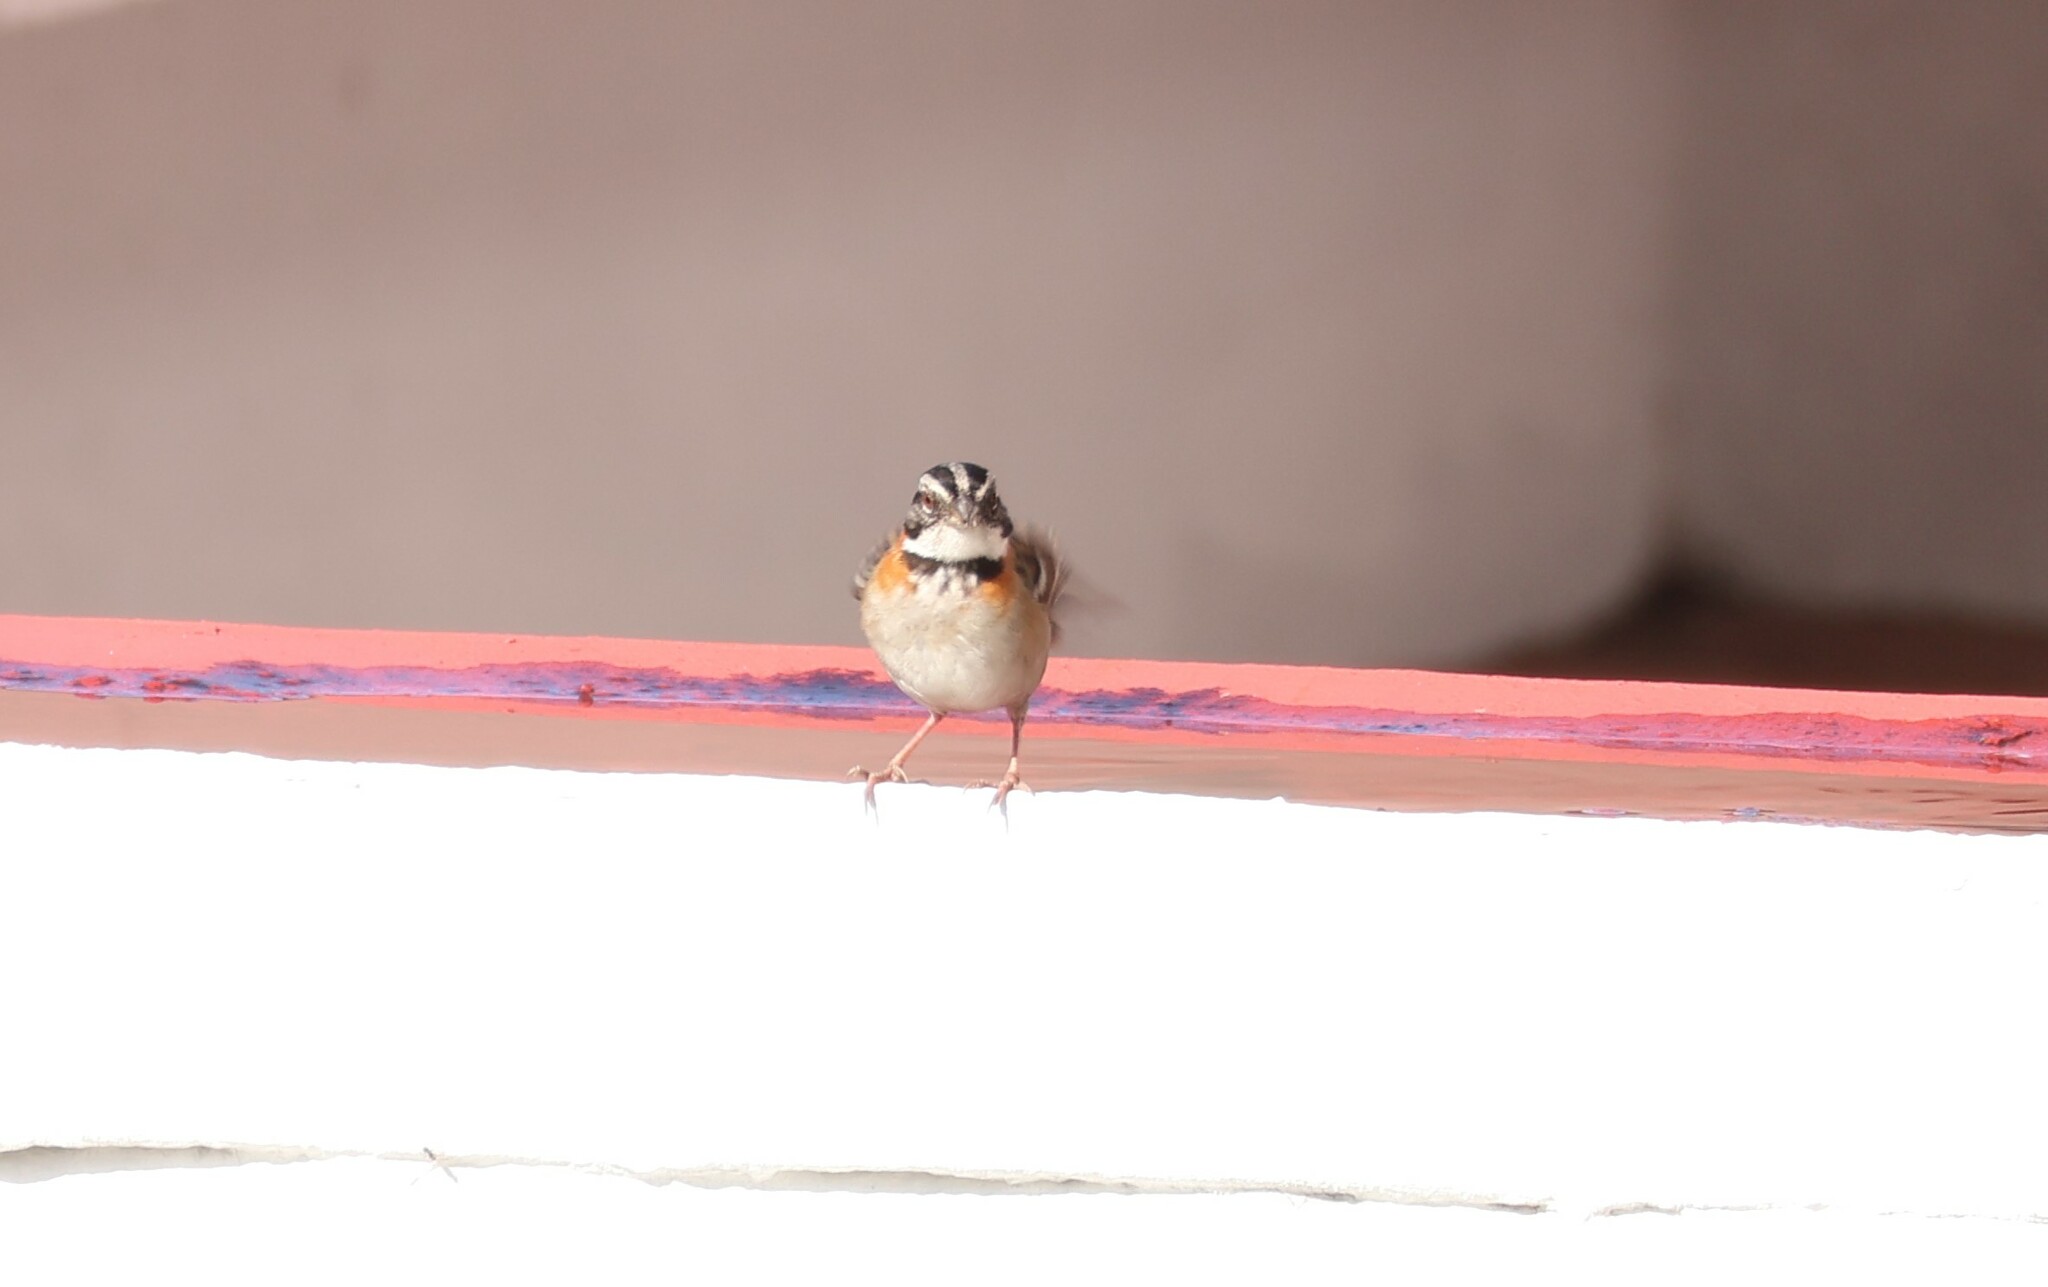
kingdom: Animalia
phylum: Chordata
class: Aves
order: Passeriformes
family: Passerellidae
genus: Zonotrichia
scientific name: Zonotrichia capensis
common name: Rufous-collared sparrow
